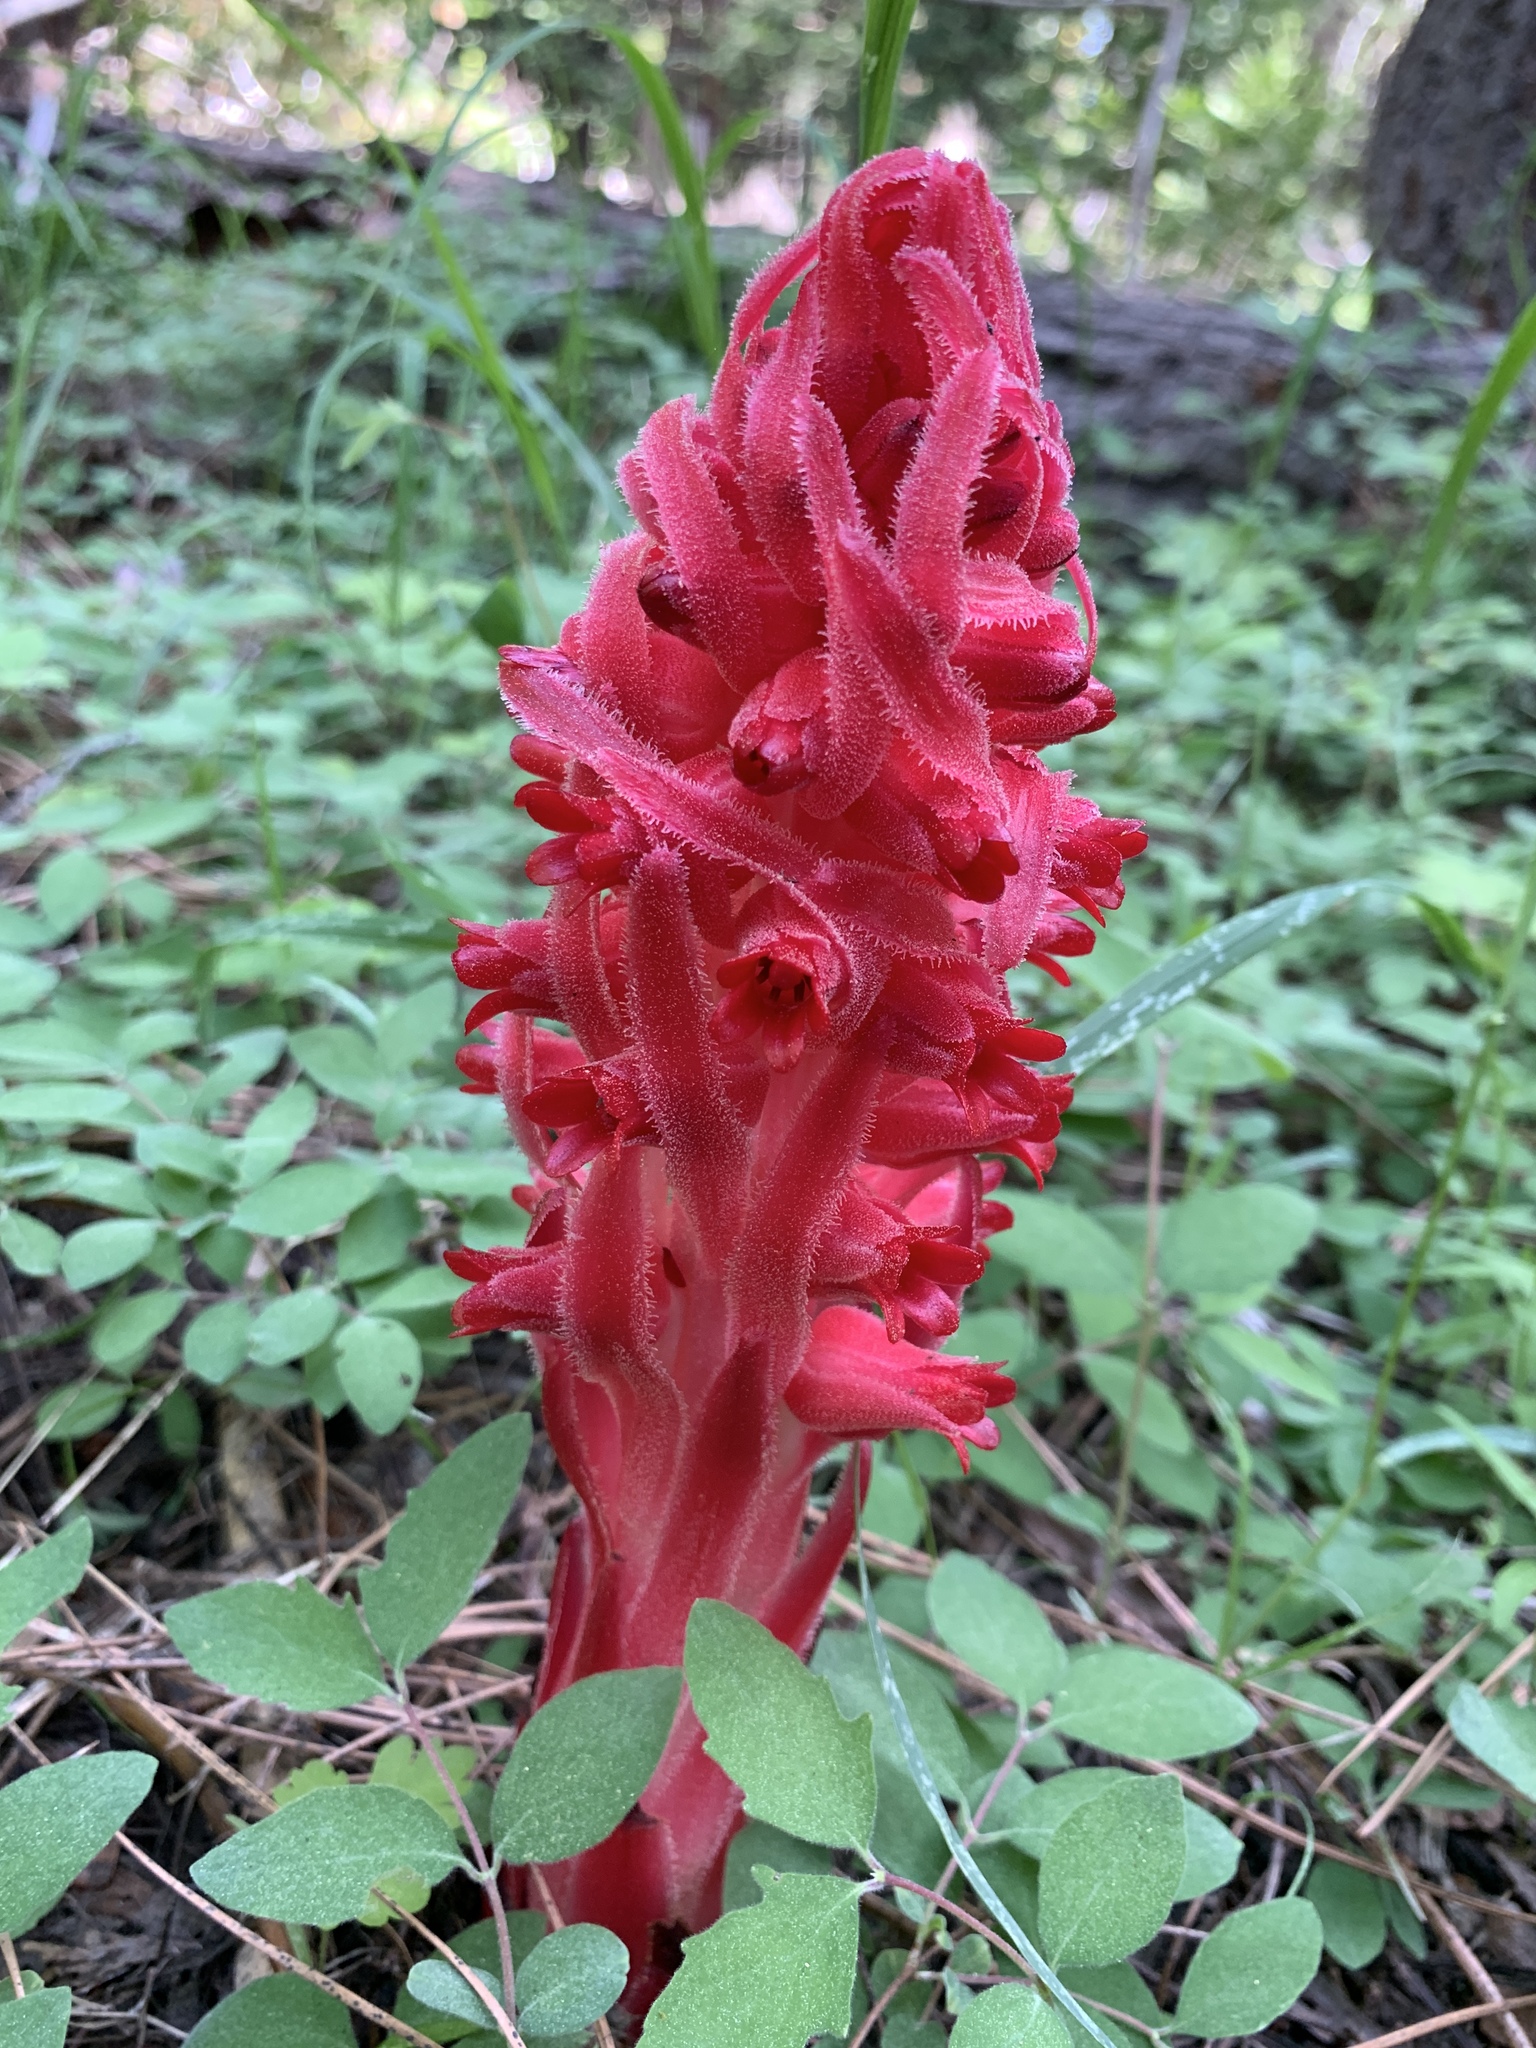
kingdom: Plantae
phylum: Tracheophyta
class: Magnoliopsida
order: Ericales
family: Ericaceae
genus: Sarcodes
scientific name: Sarcodes sanguinea
